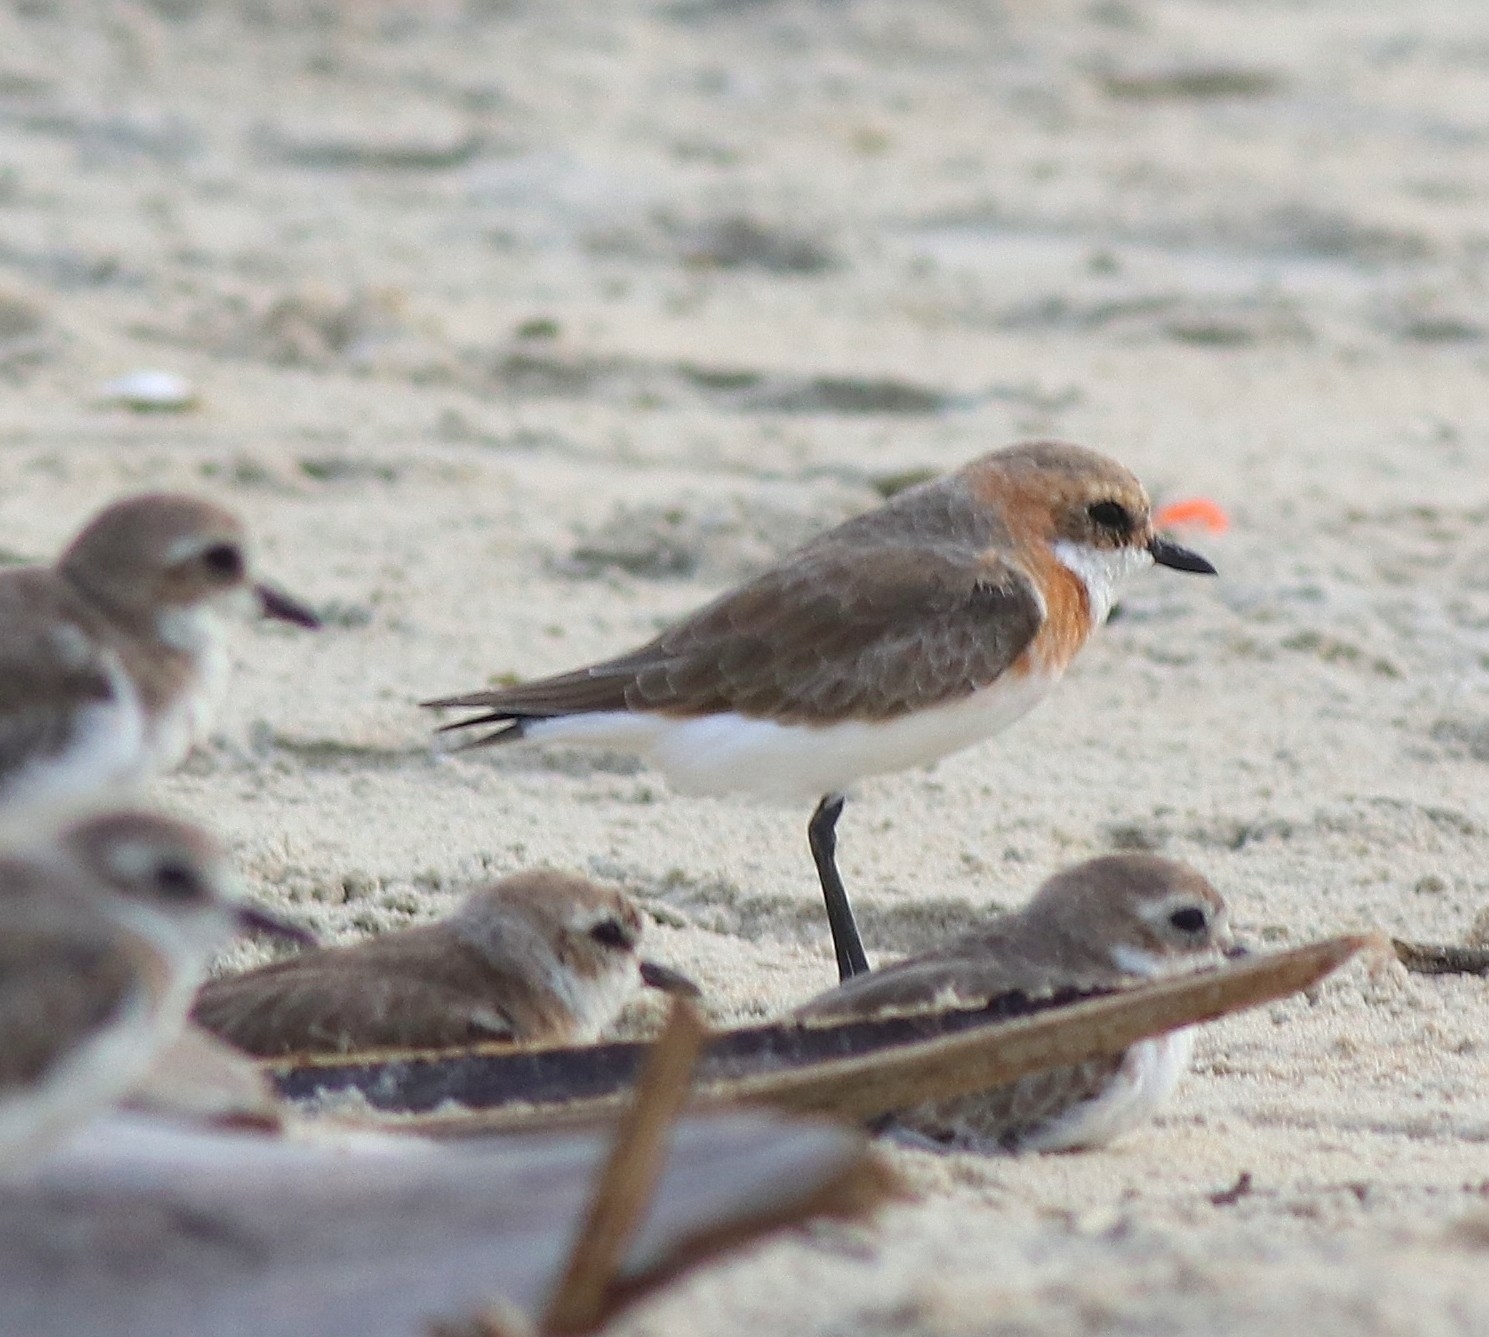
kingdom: Animalia
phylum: Chordata
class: Aves
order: Charadriiformes
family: Charadriidae
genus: Anarhynchus
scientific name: Anarhynchus
